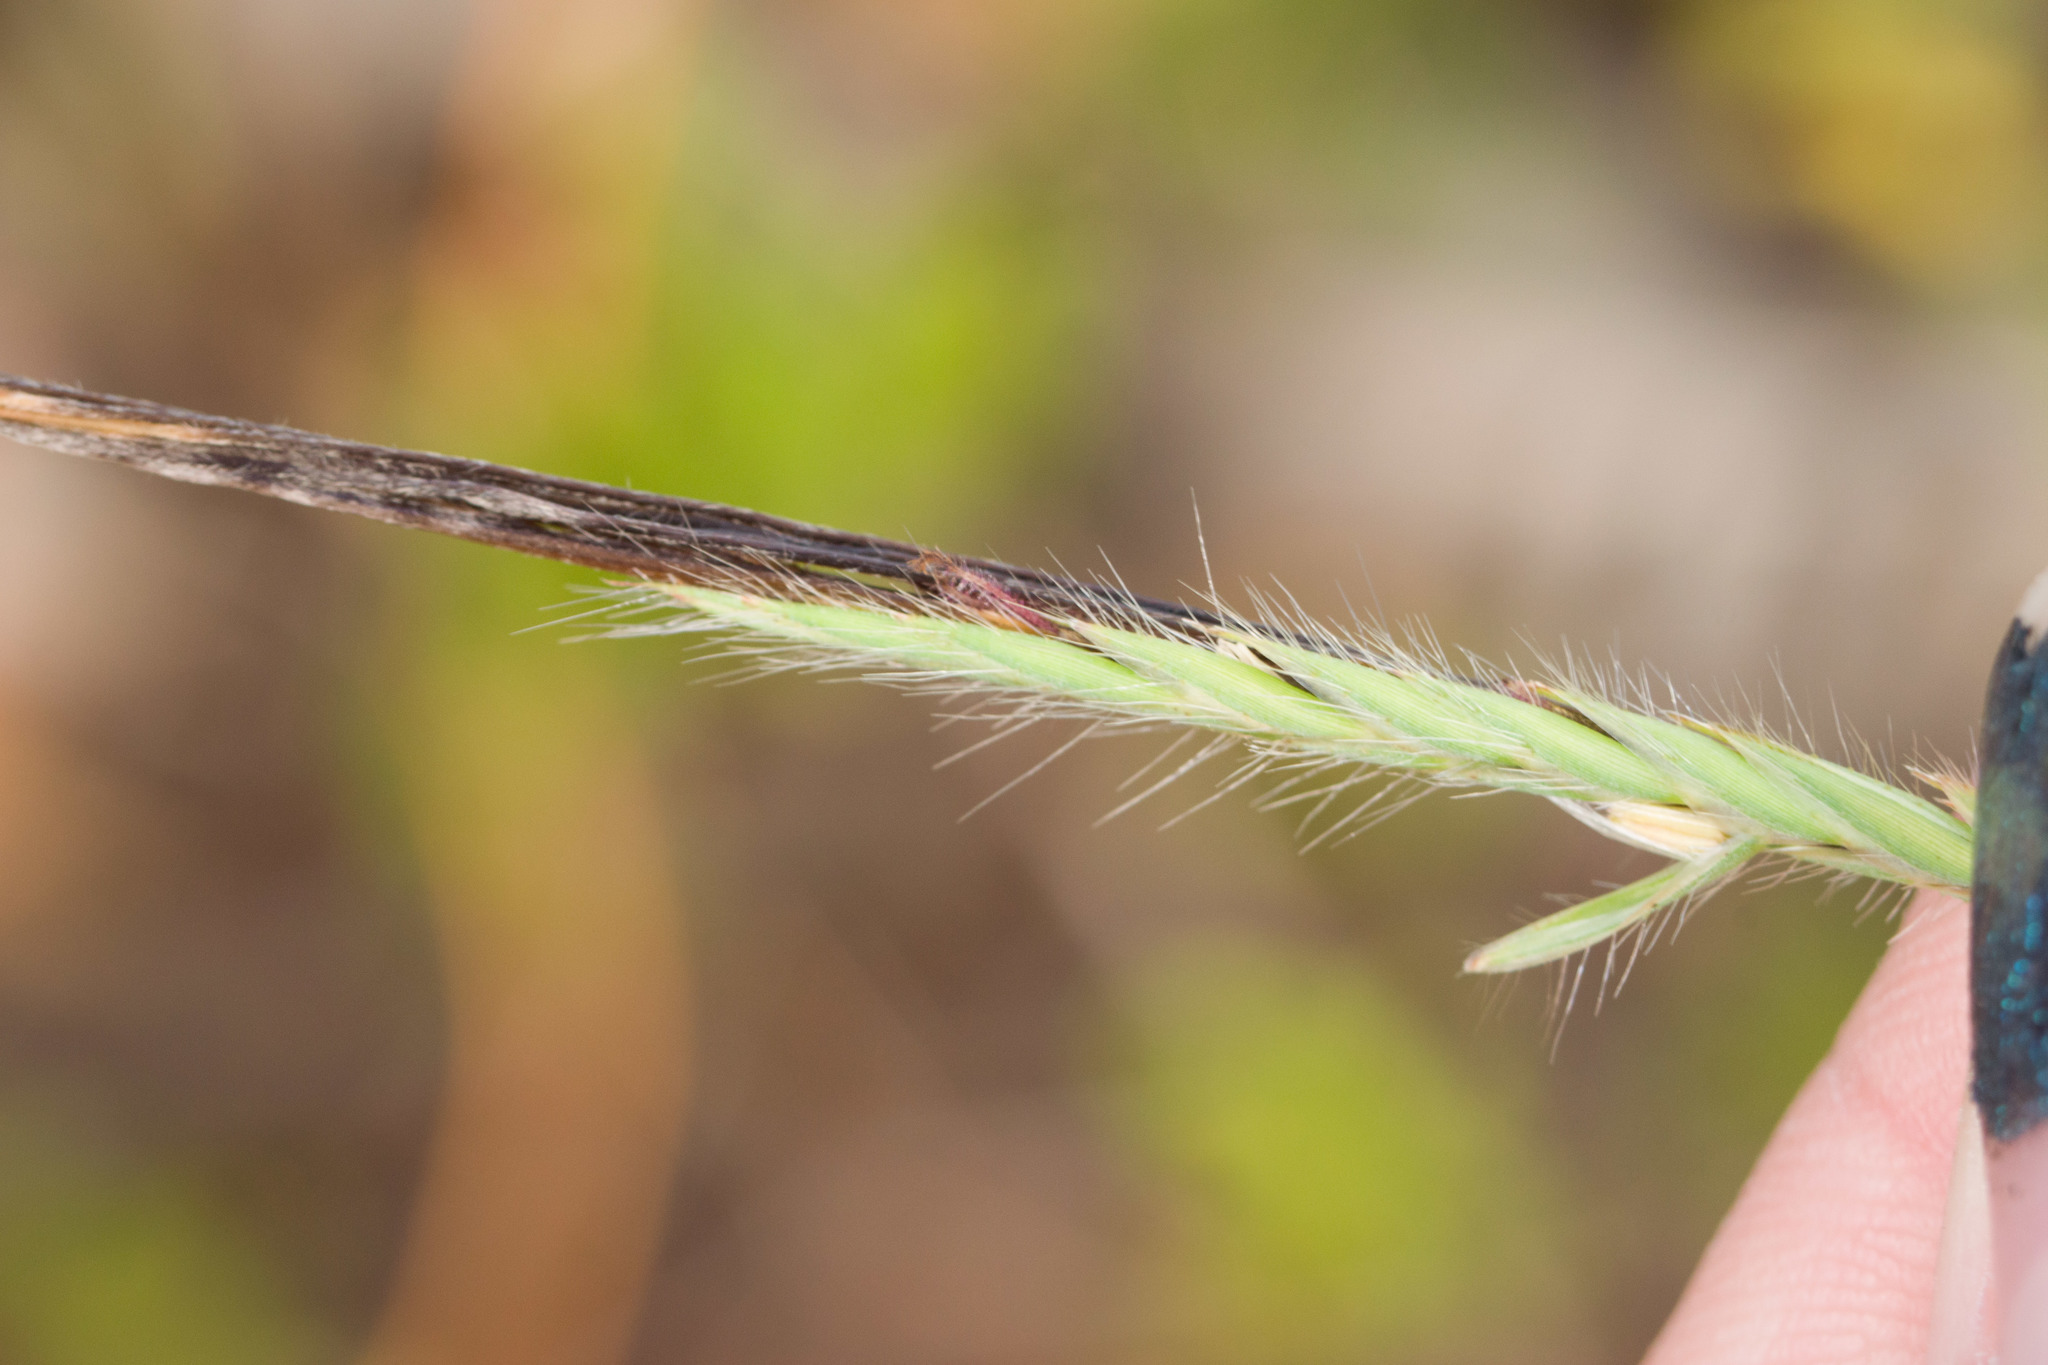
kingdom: Plantae
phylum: Tracheophyta
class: Liliopsida
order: Poales
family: Poaceae
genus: Heteropogon
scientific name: Heteropogon contortus
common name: Tanglehead
